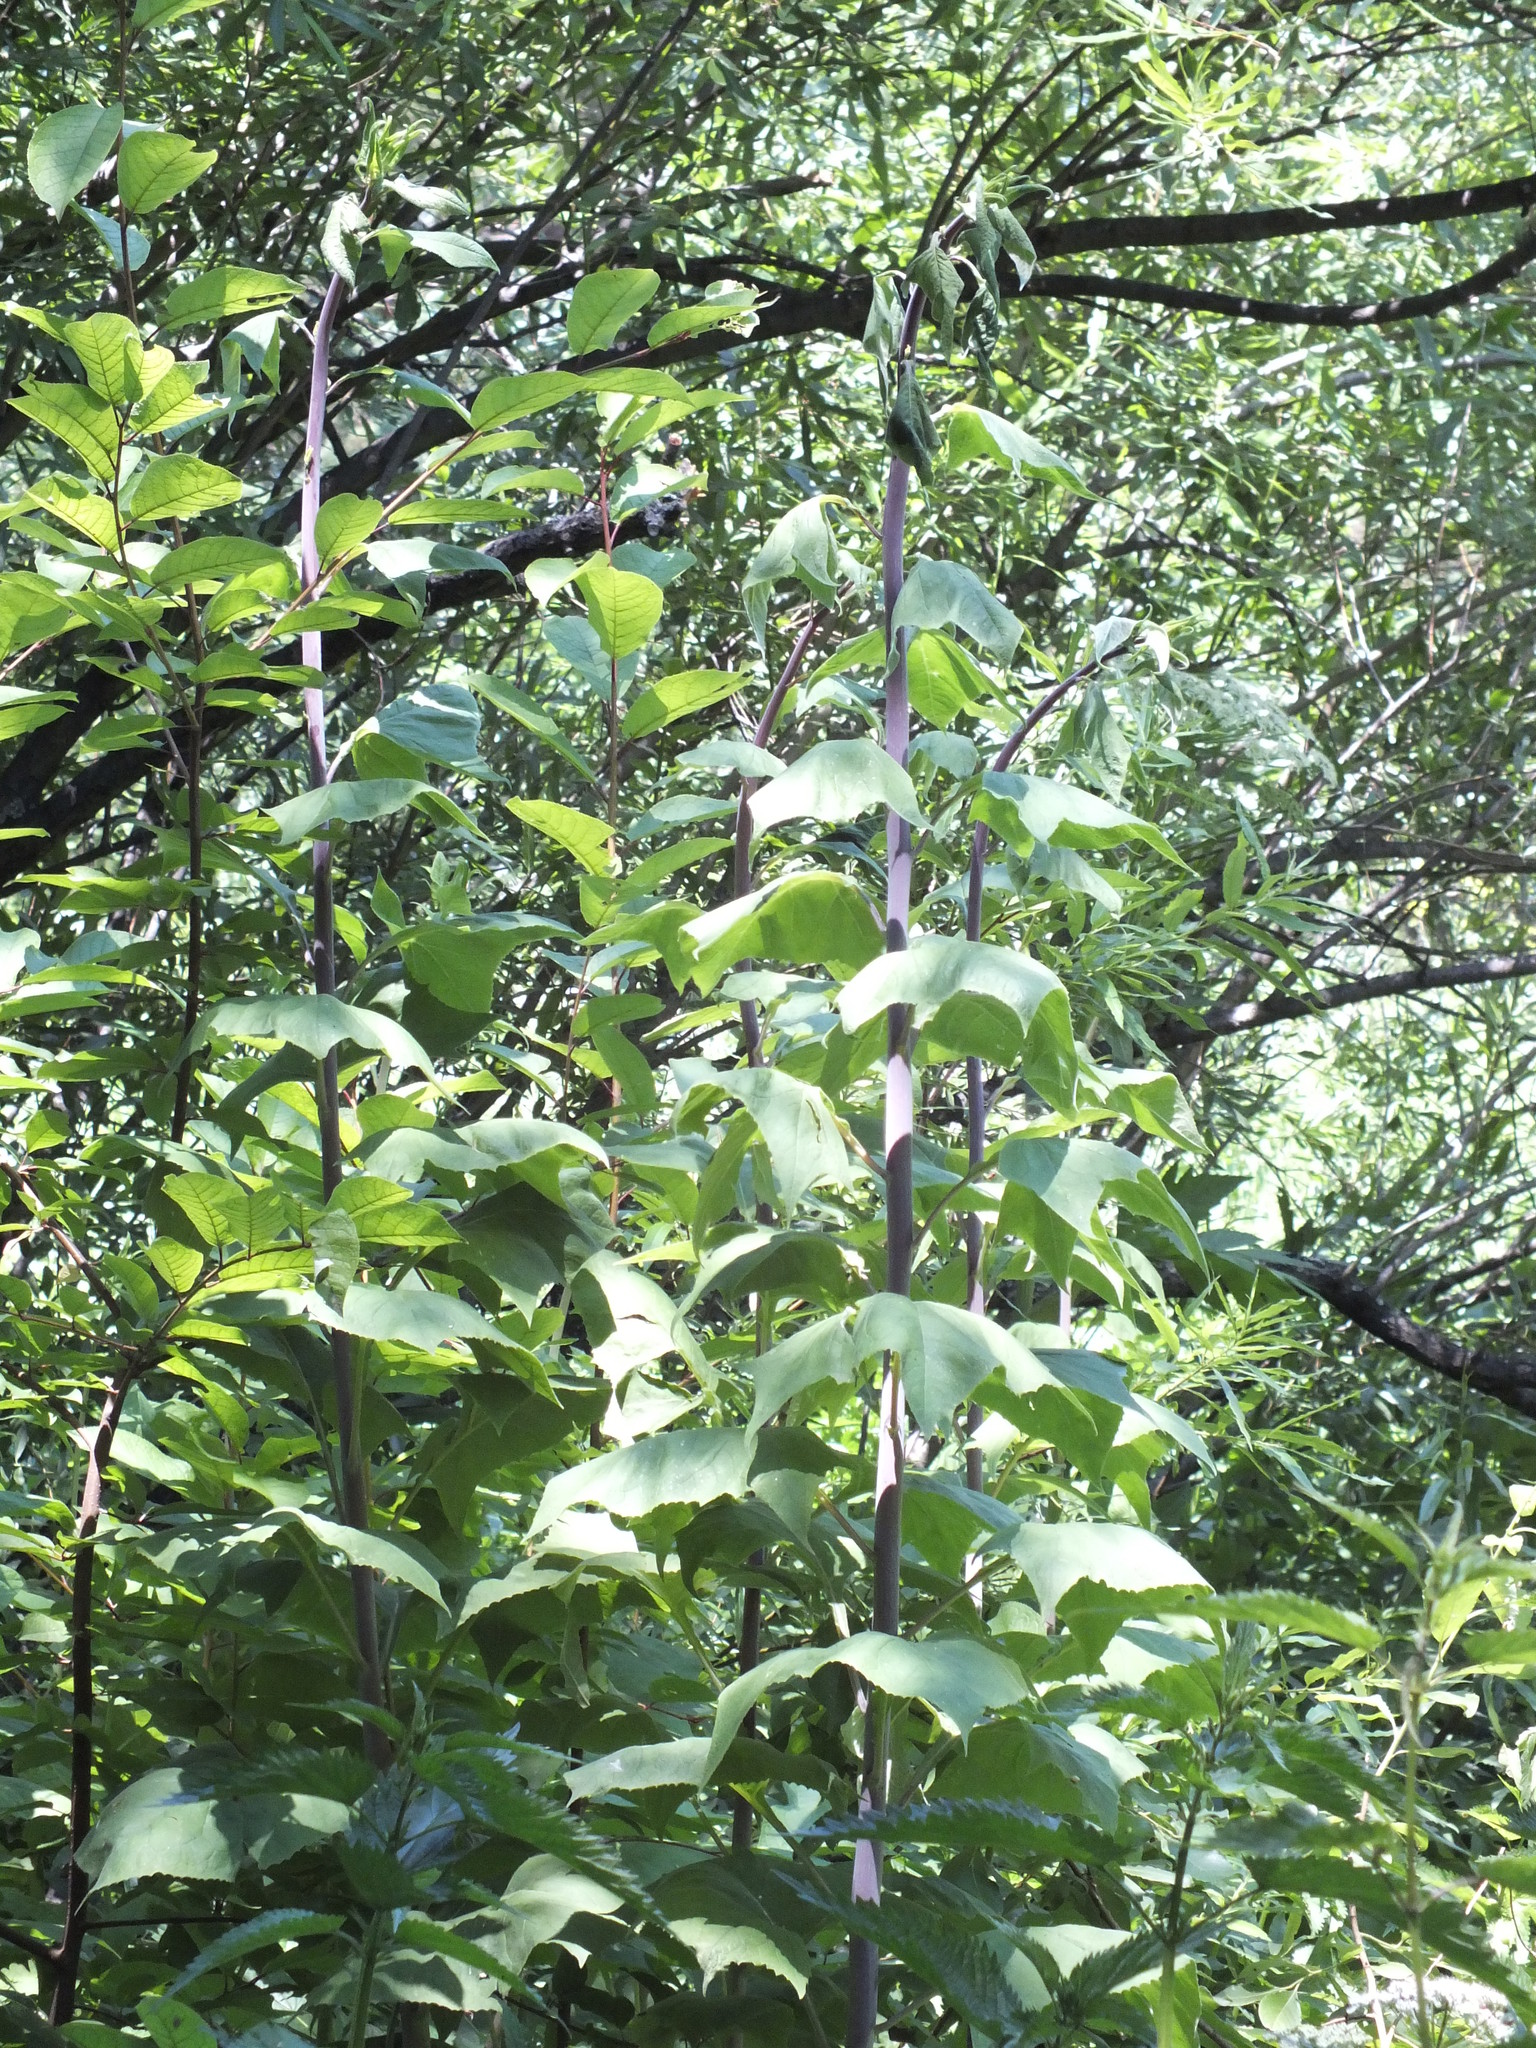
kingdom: Plantae
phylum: Tracheophyta
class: Magnoliopsida
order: Asterales
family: Asteraceae
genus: Parasenecio
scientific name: Parasenecio hastatus
